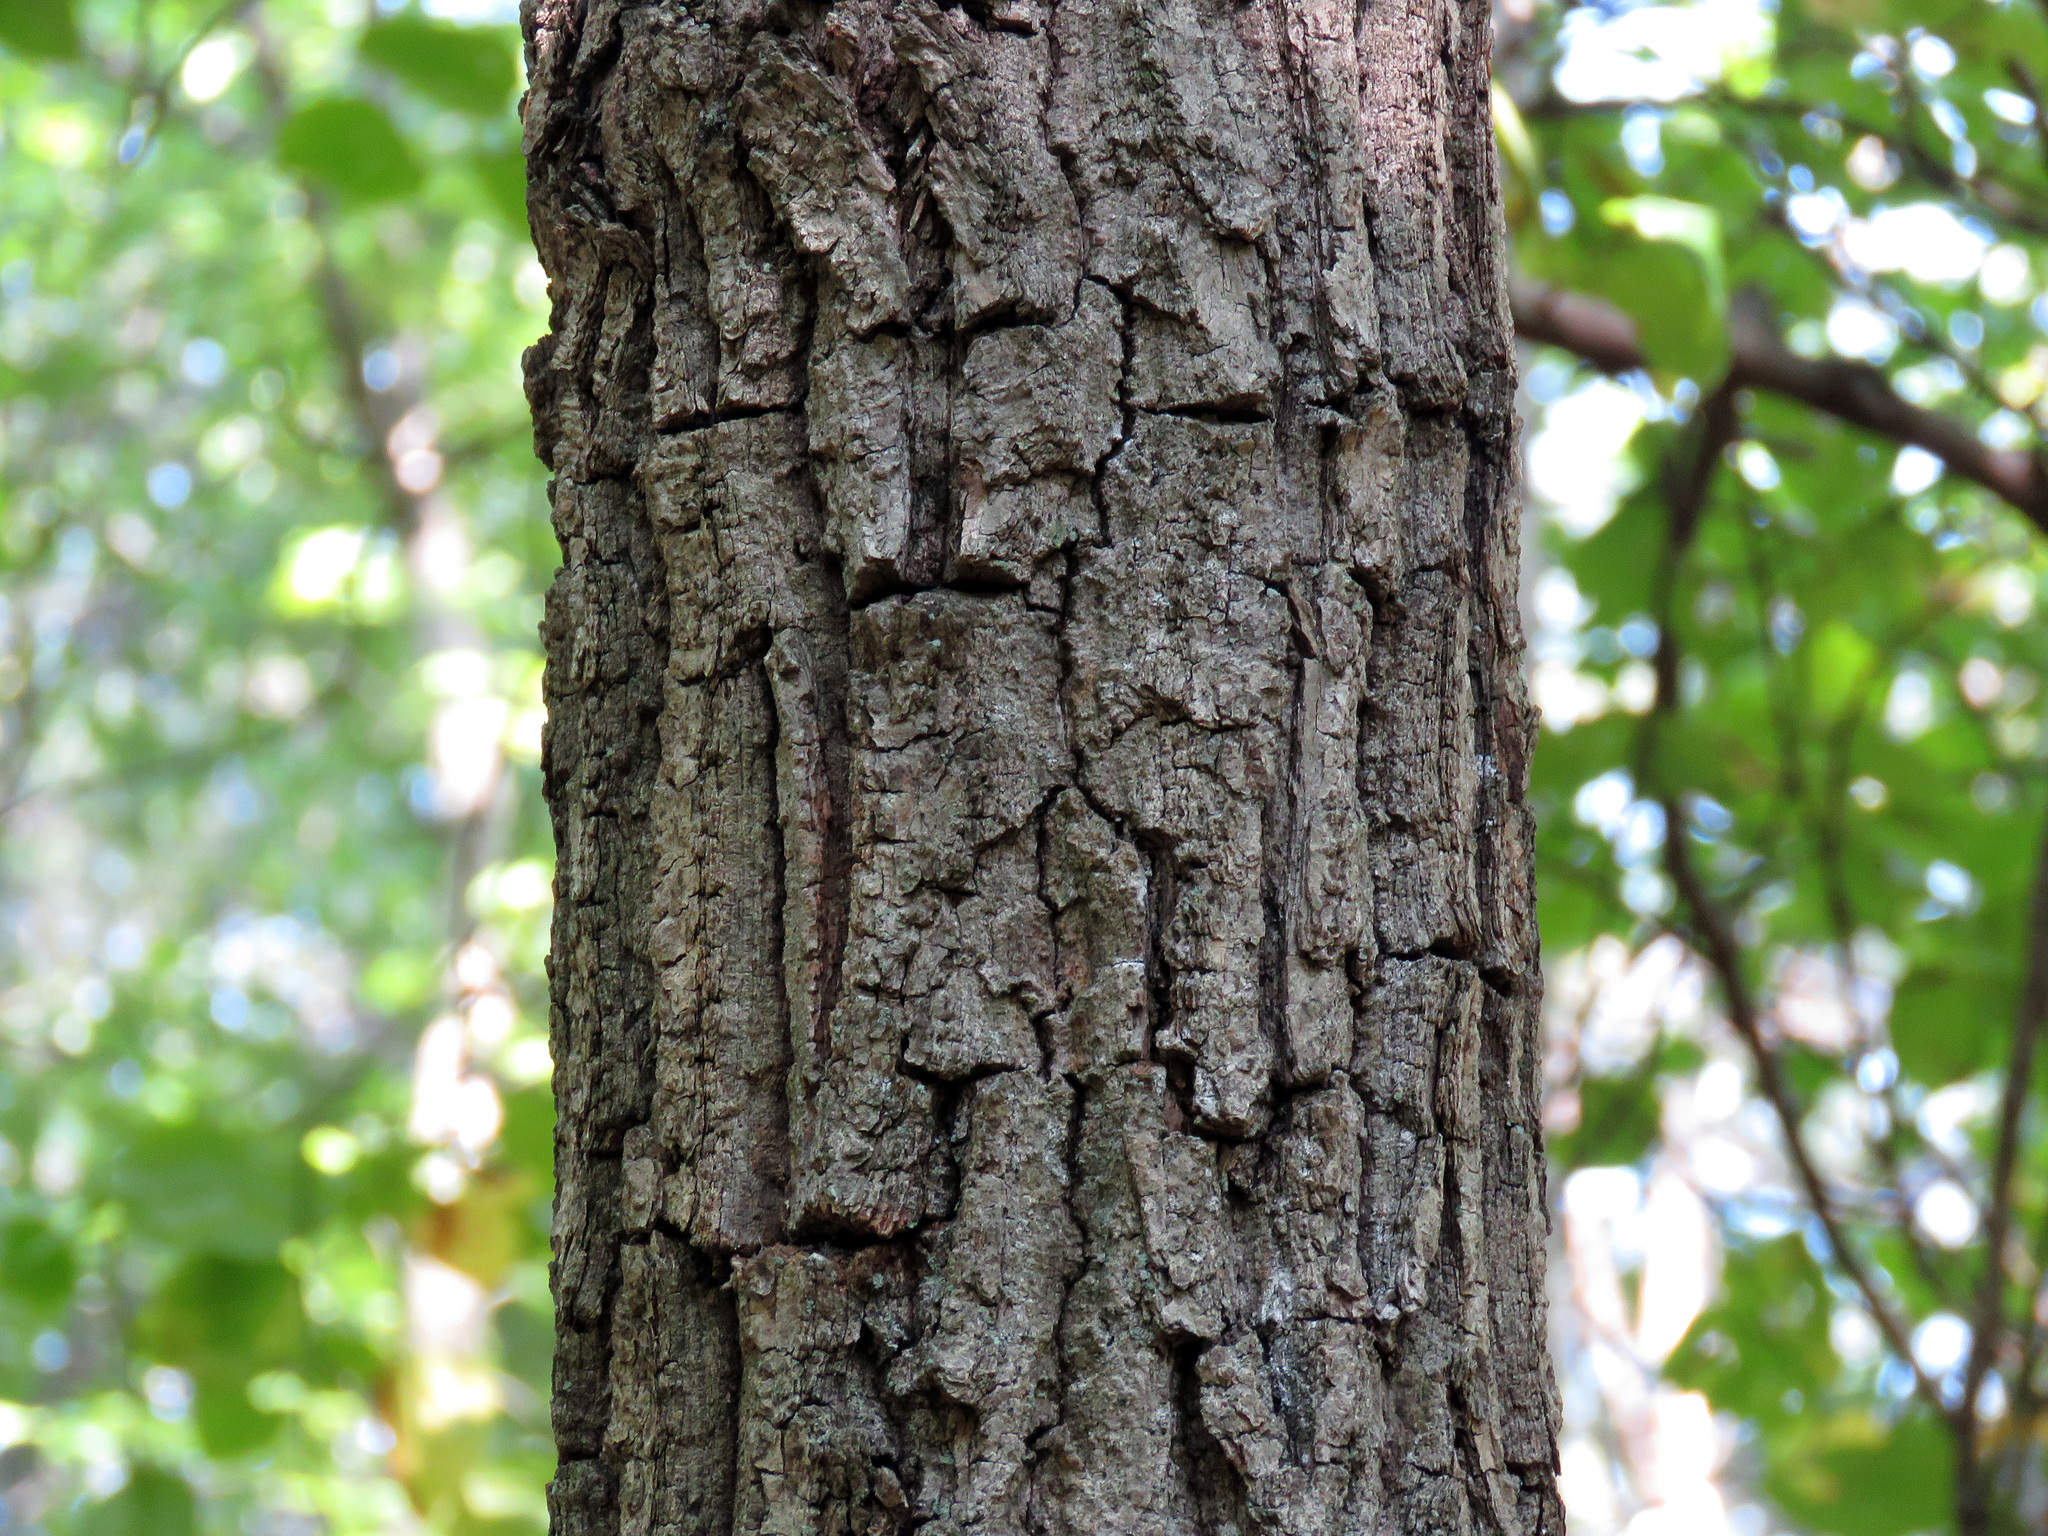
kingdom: Plantae
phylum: Tracheophyta
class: Magnoliopsida
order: Fagales
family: Fagaceae
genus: Quercus
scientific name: Quercus montana
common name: Chestnut oak
